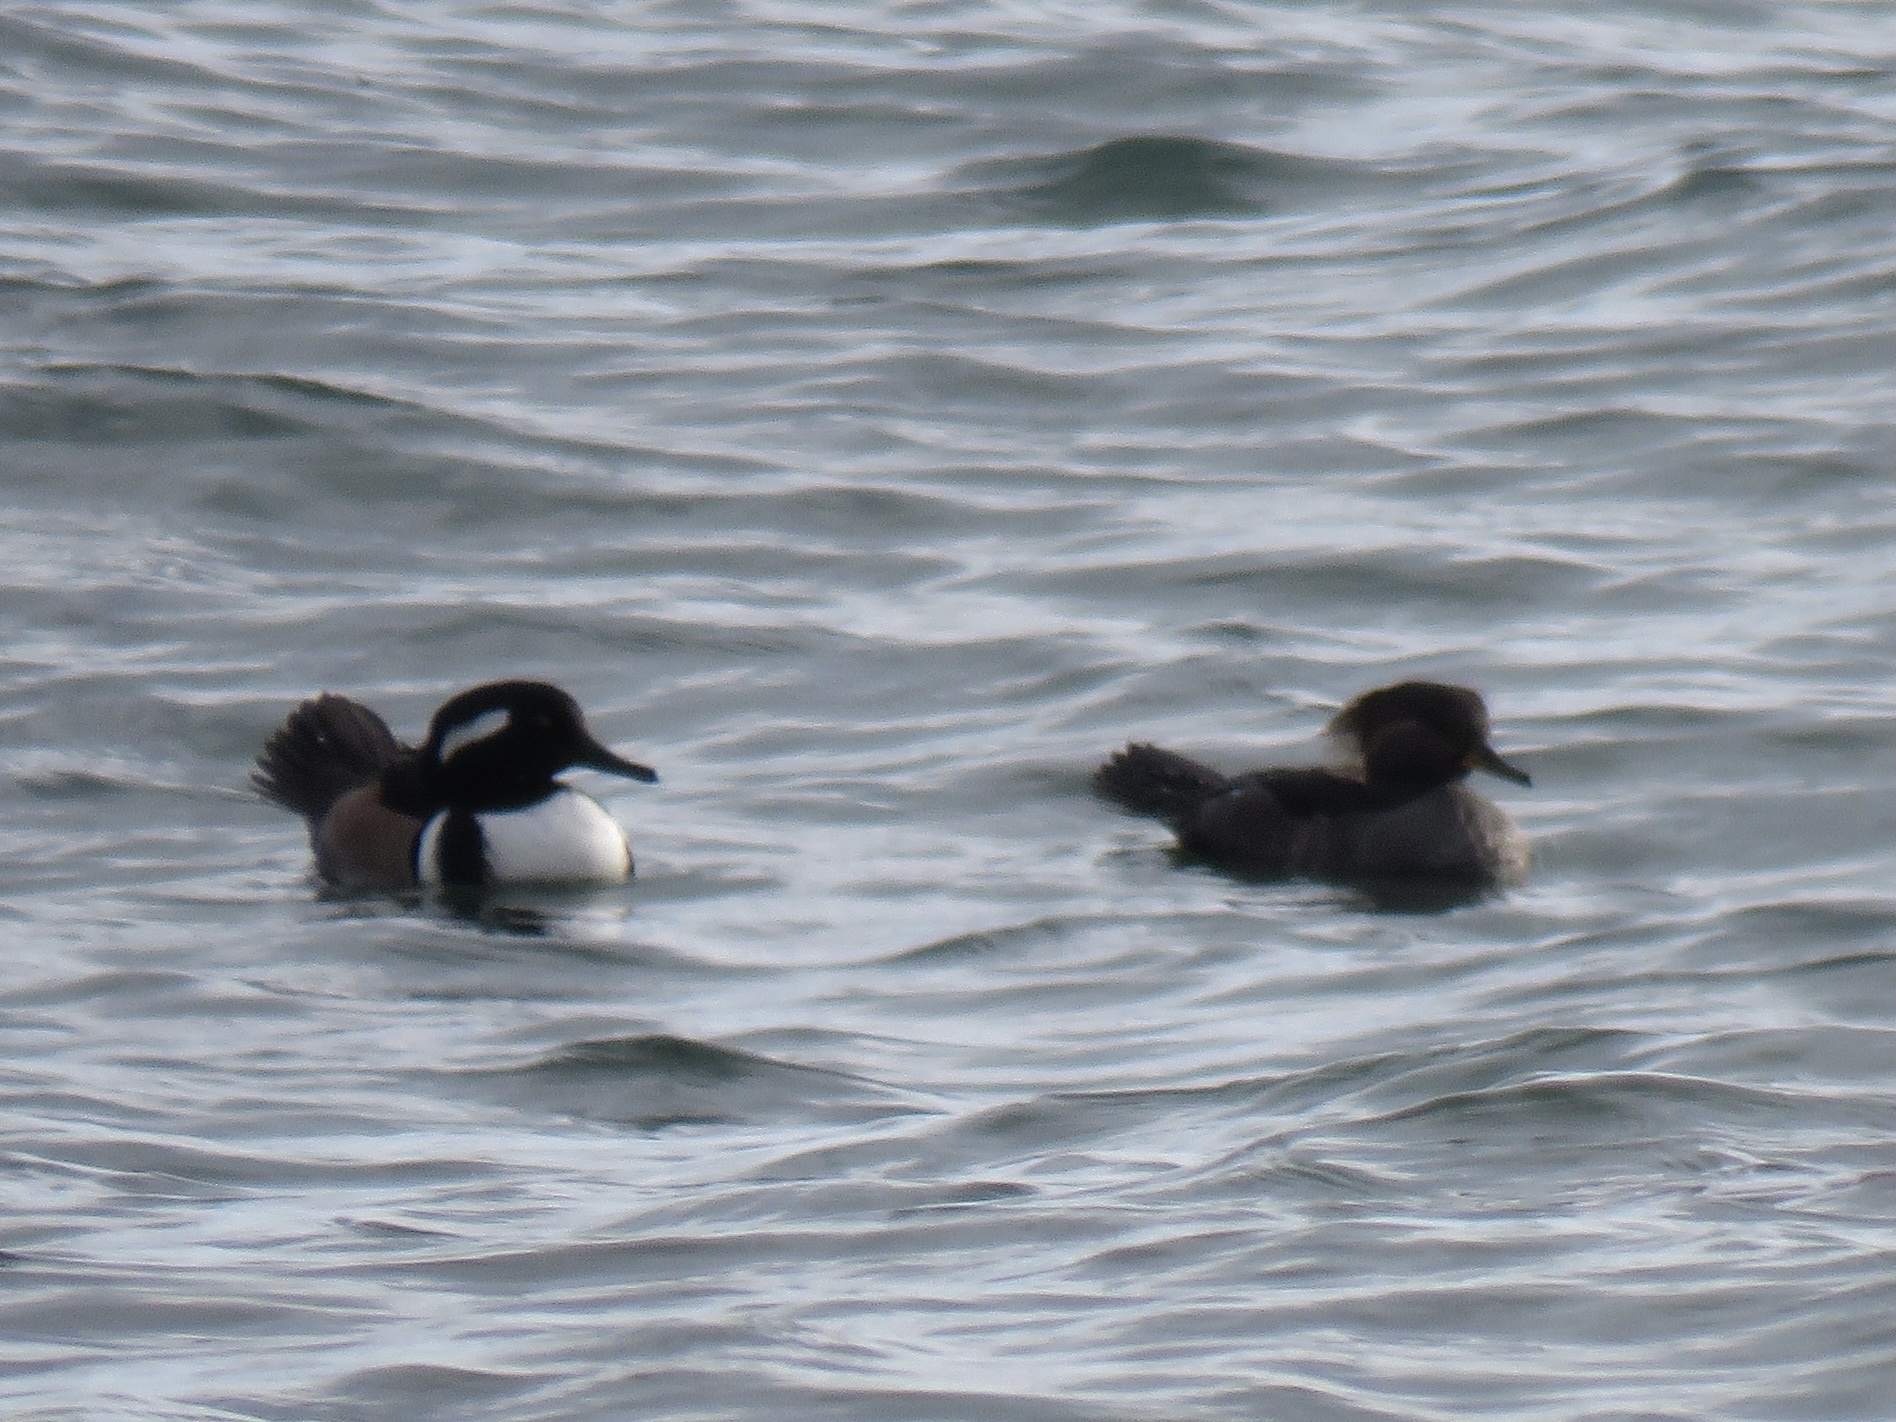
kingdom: Animalia
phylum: Chordata
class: Aves
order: Anseriformes
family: Anatidae
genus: Lophodytes
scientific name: Lophodytes cucullatus
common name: Hooded merganser
